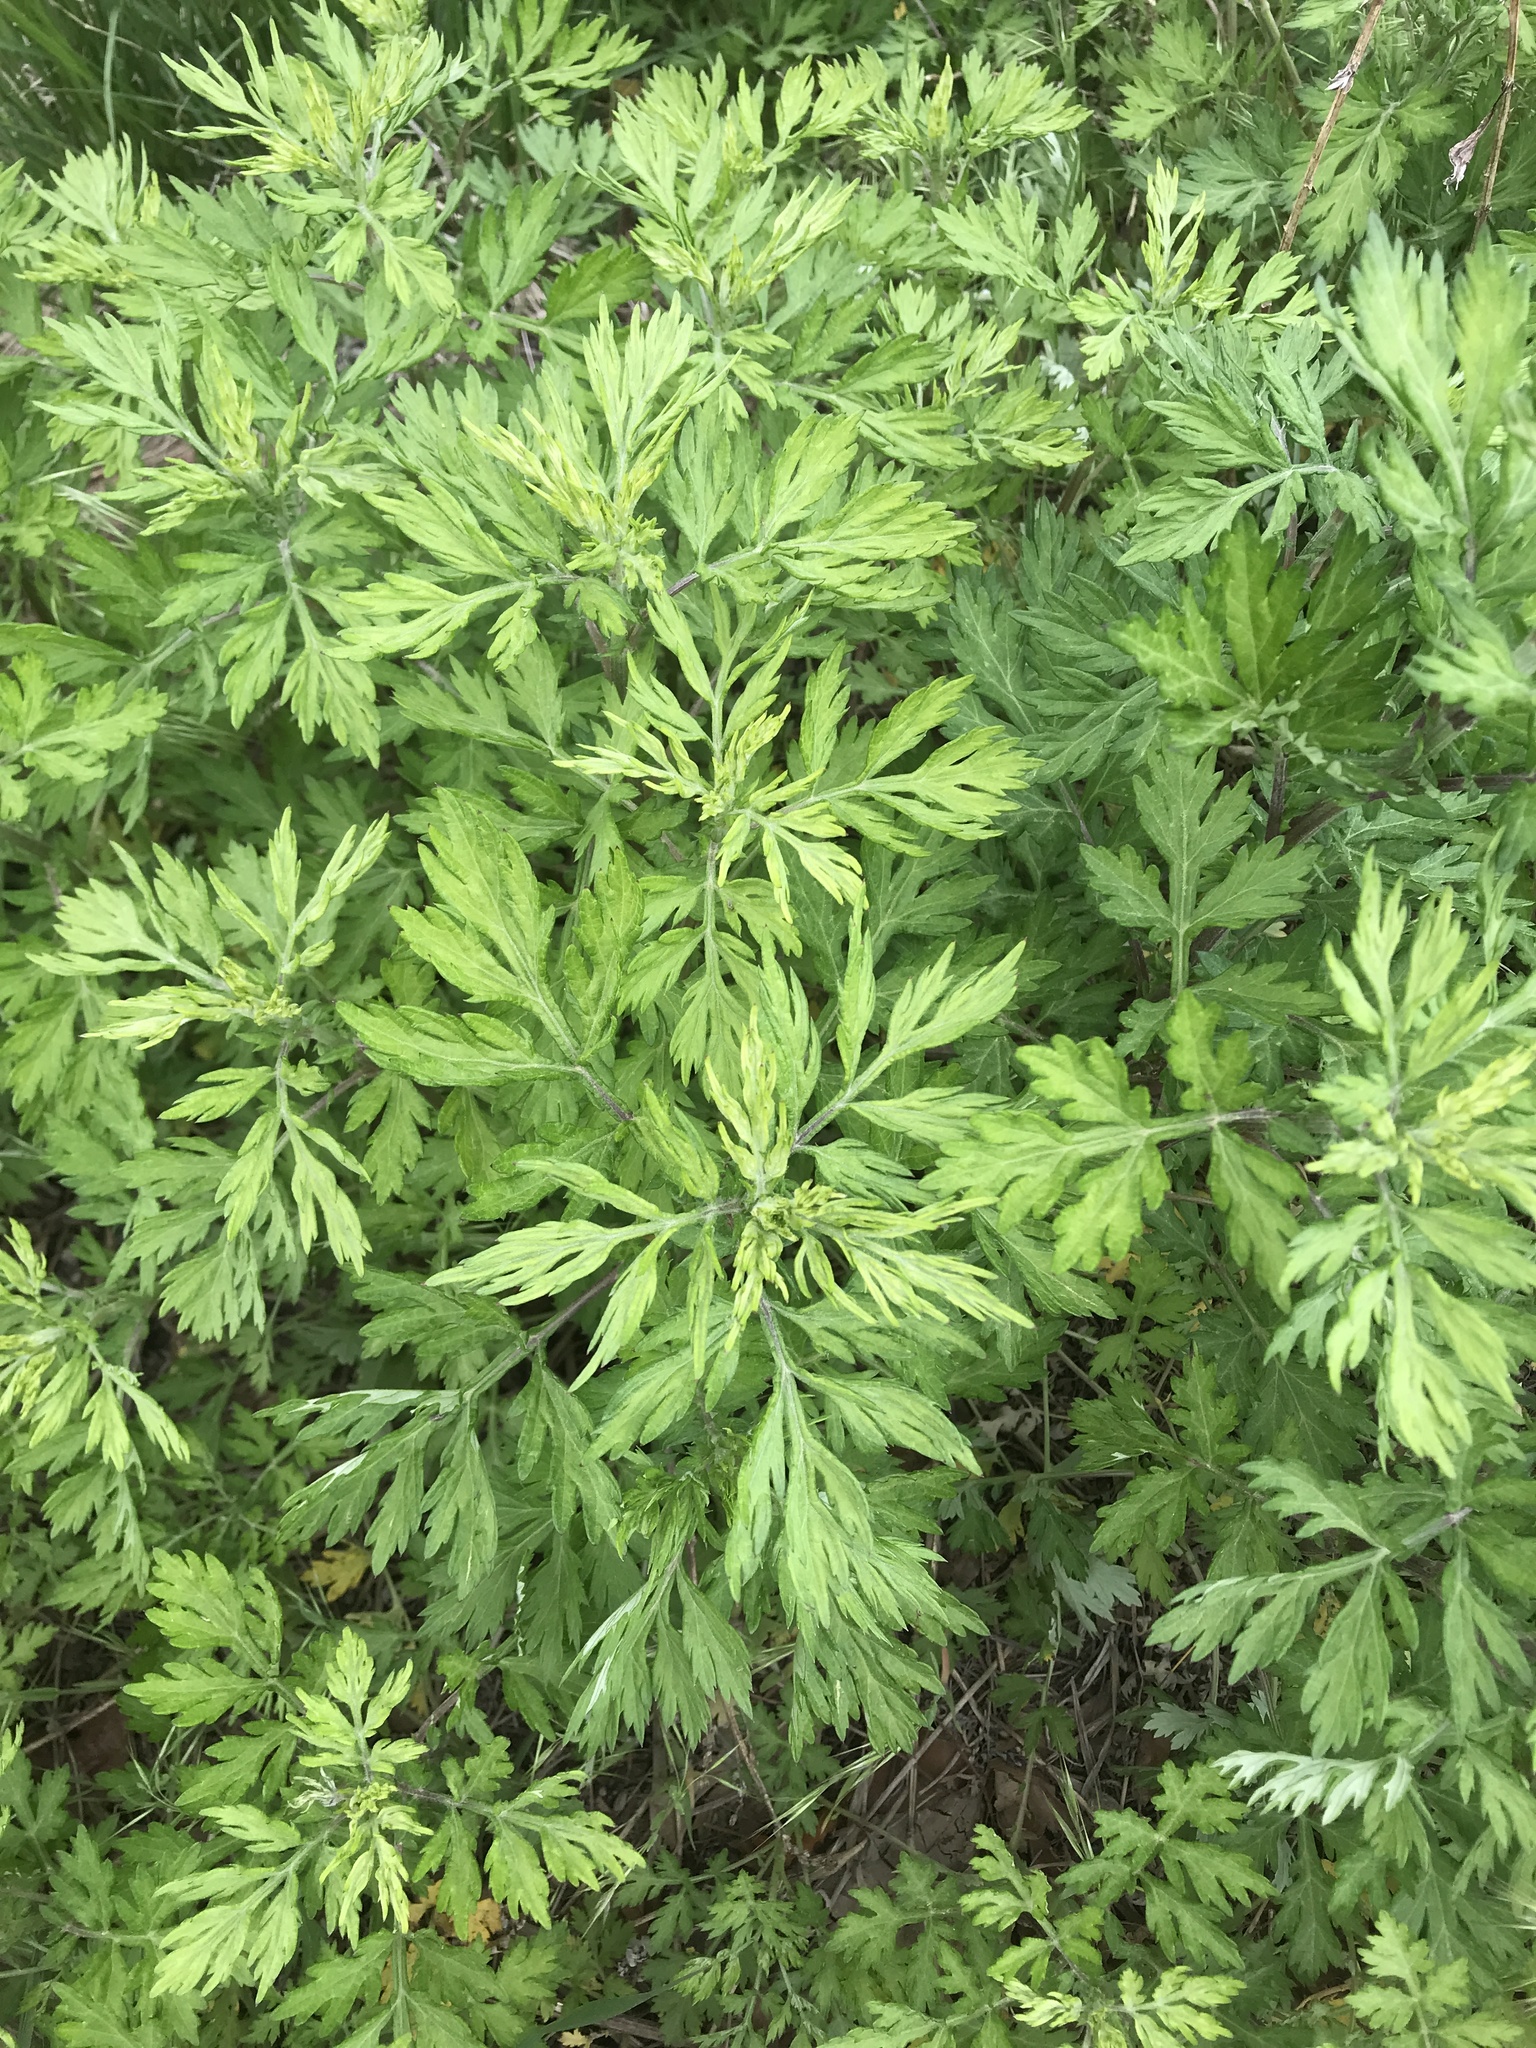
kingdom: Plantae
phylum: Tracheophyta
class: Magnoliopsida
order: Asterales
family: Asteraceae
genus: Artemisia
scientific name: Artemisia vulgaris
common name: Mugwort
